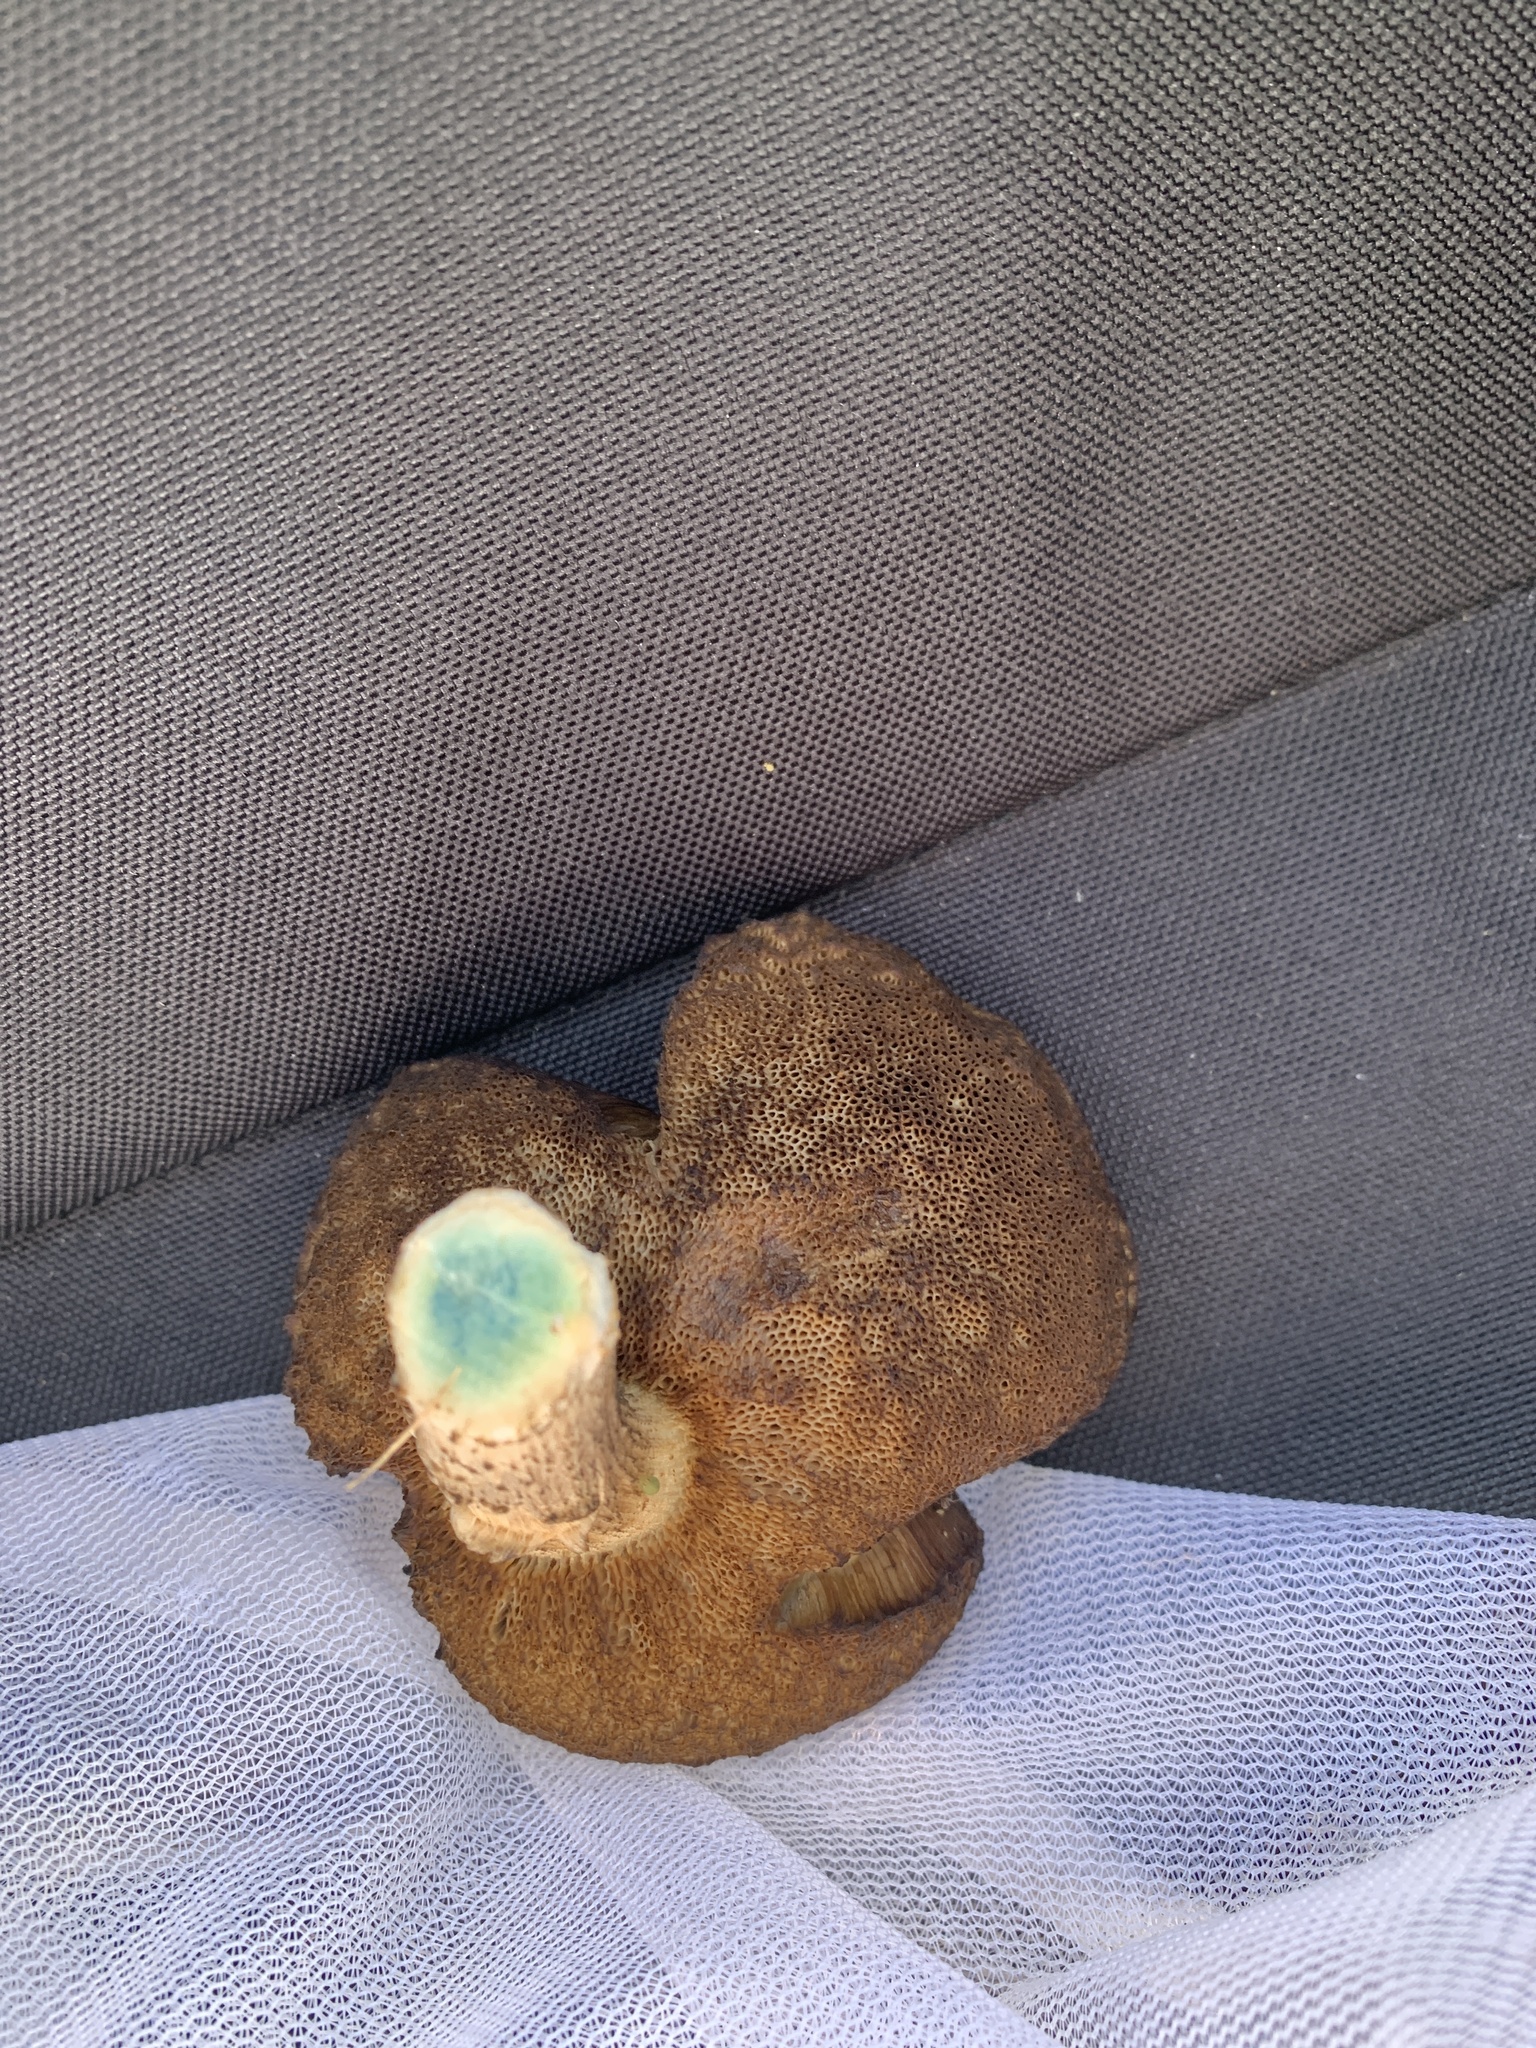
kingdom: Fungi
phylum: Basidiomycota
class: Agaricomycetes
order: Boletales
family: Boletaceae
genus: Leccinum
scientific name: Leccinum scabrum
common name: Blushing bolete
